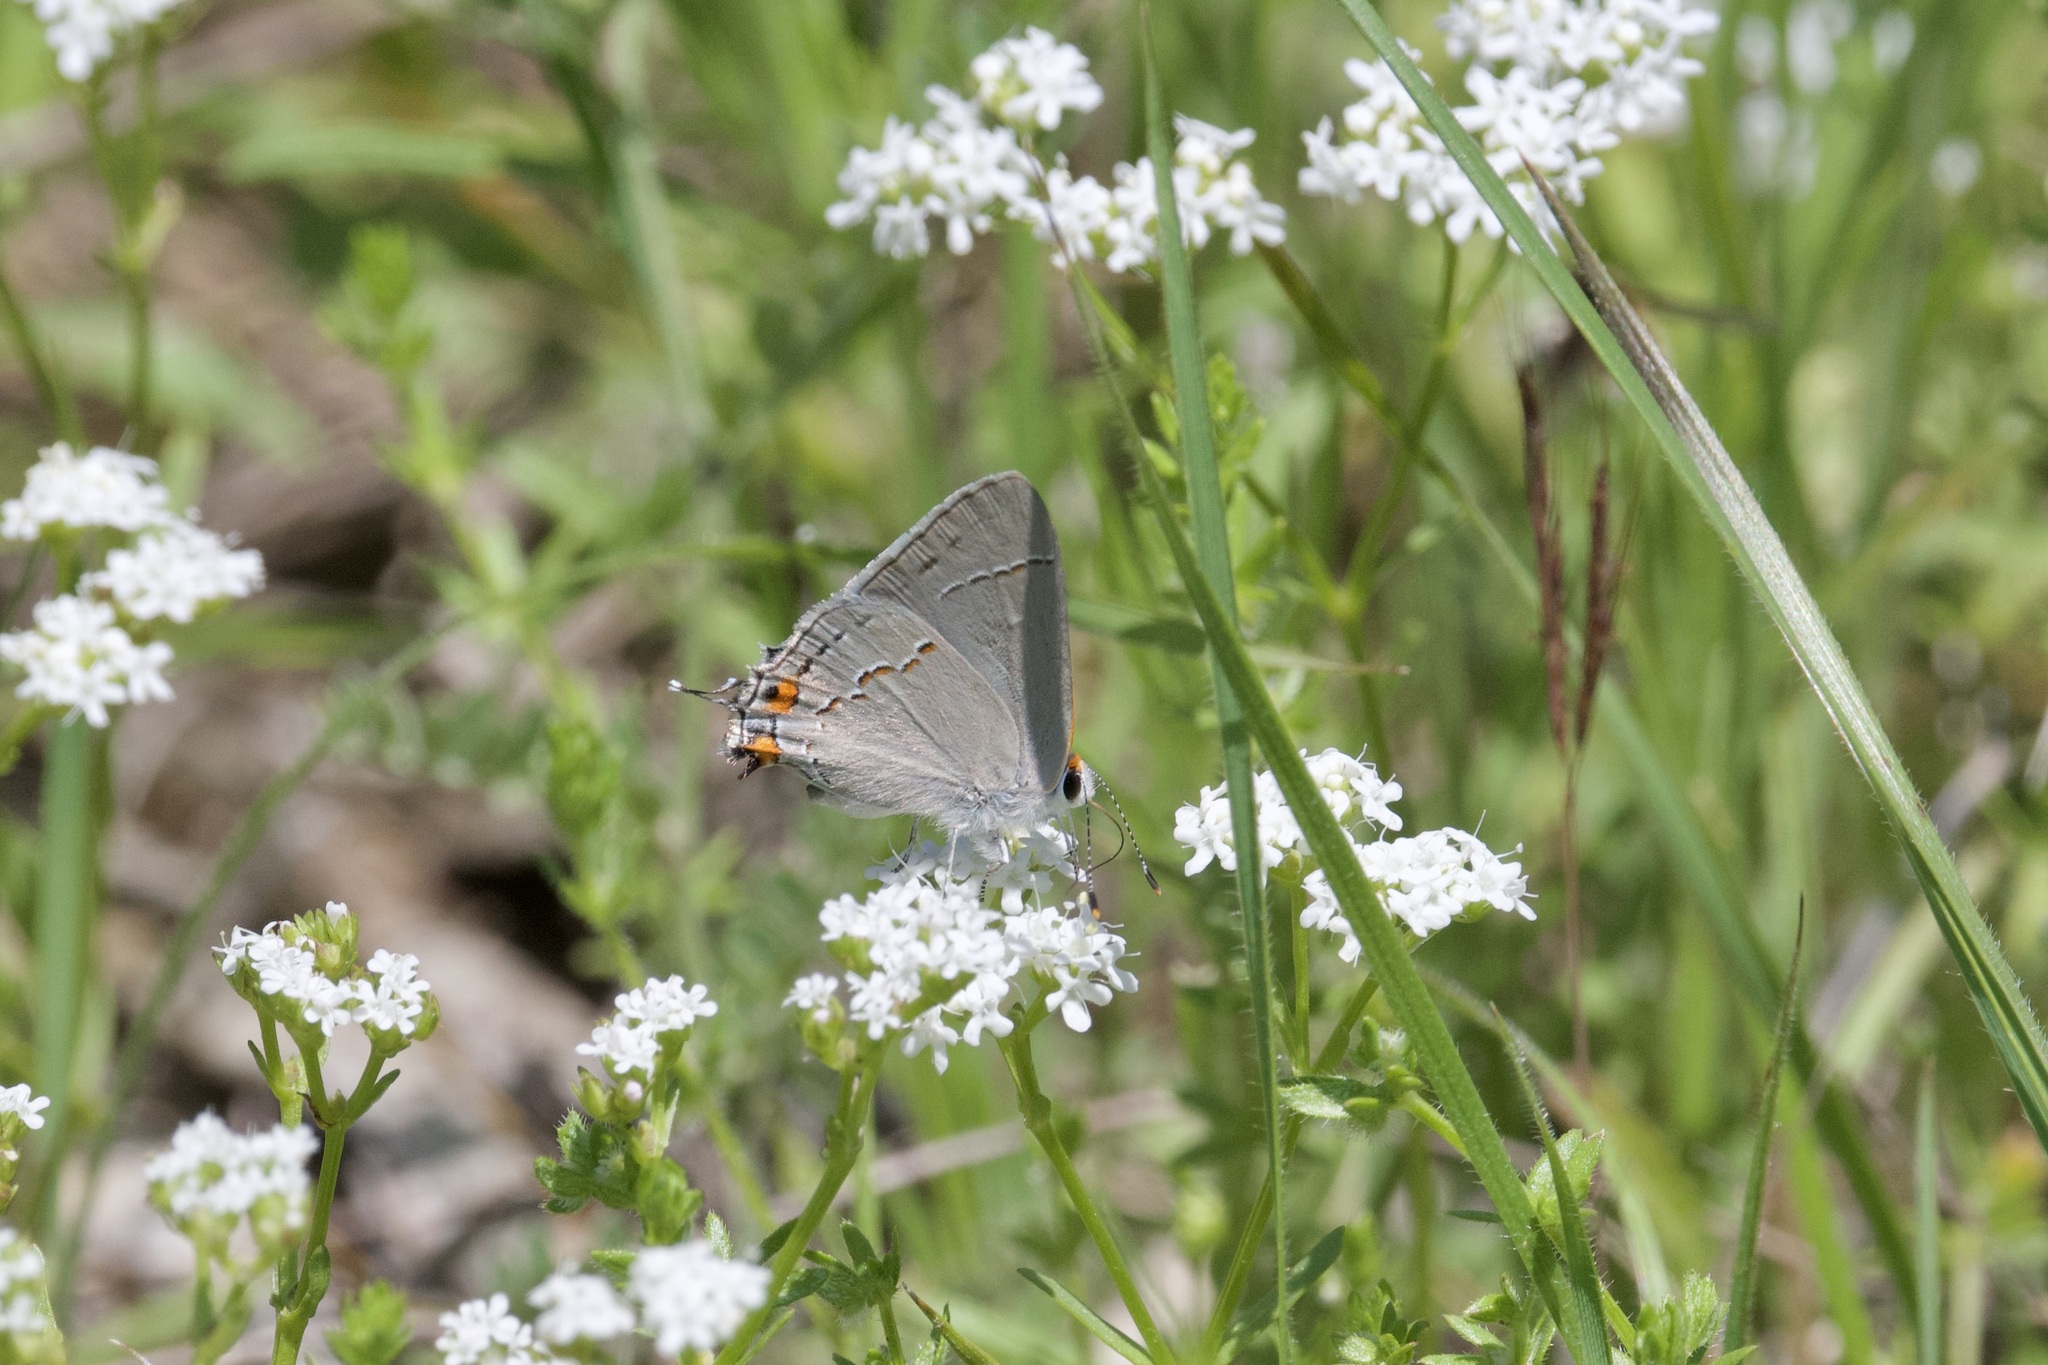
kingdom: Animalia
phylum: Arthropoda
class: Insecta
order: Lepidoptera
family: Lycaenidae
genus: Strymon
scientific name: Strymon melinus
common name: Gray hairstreak
